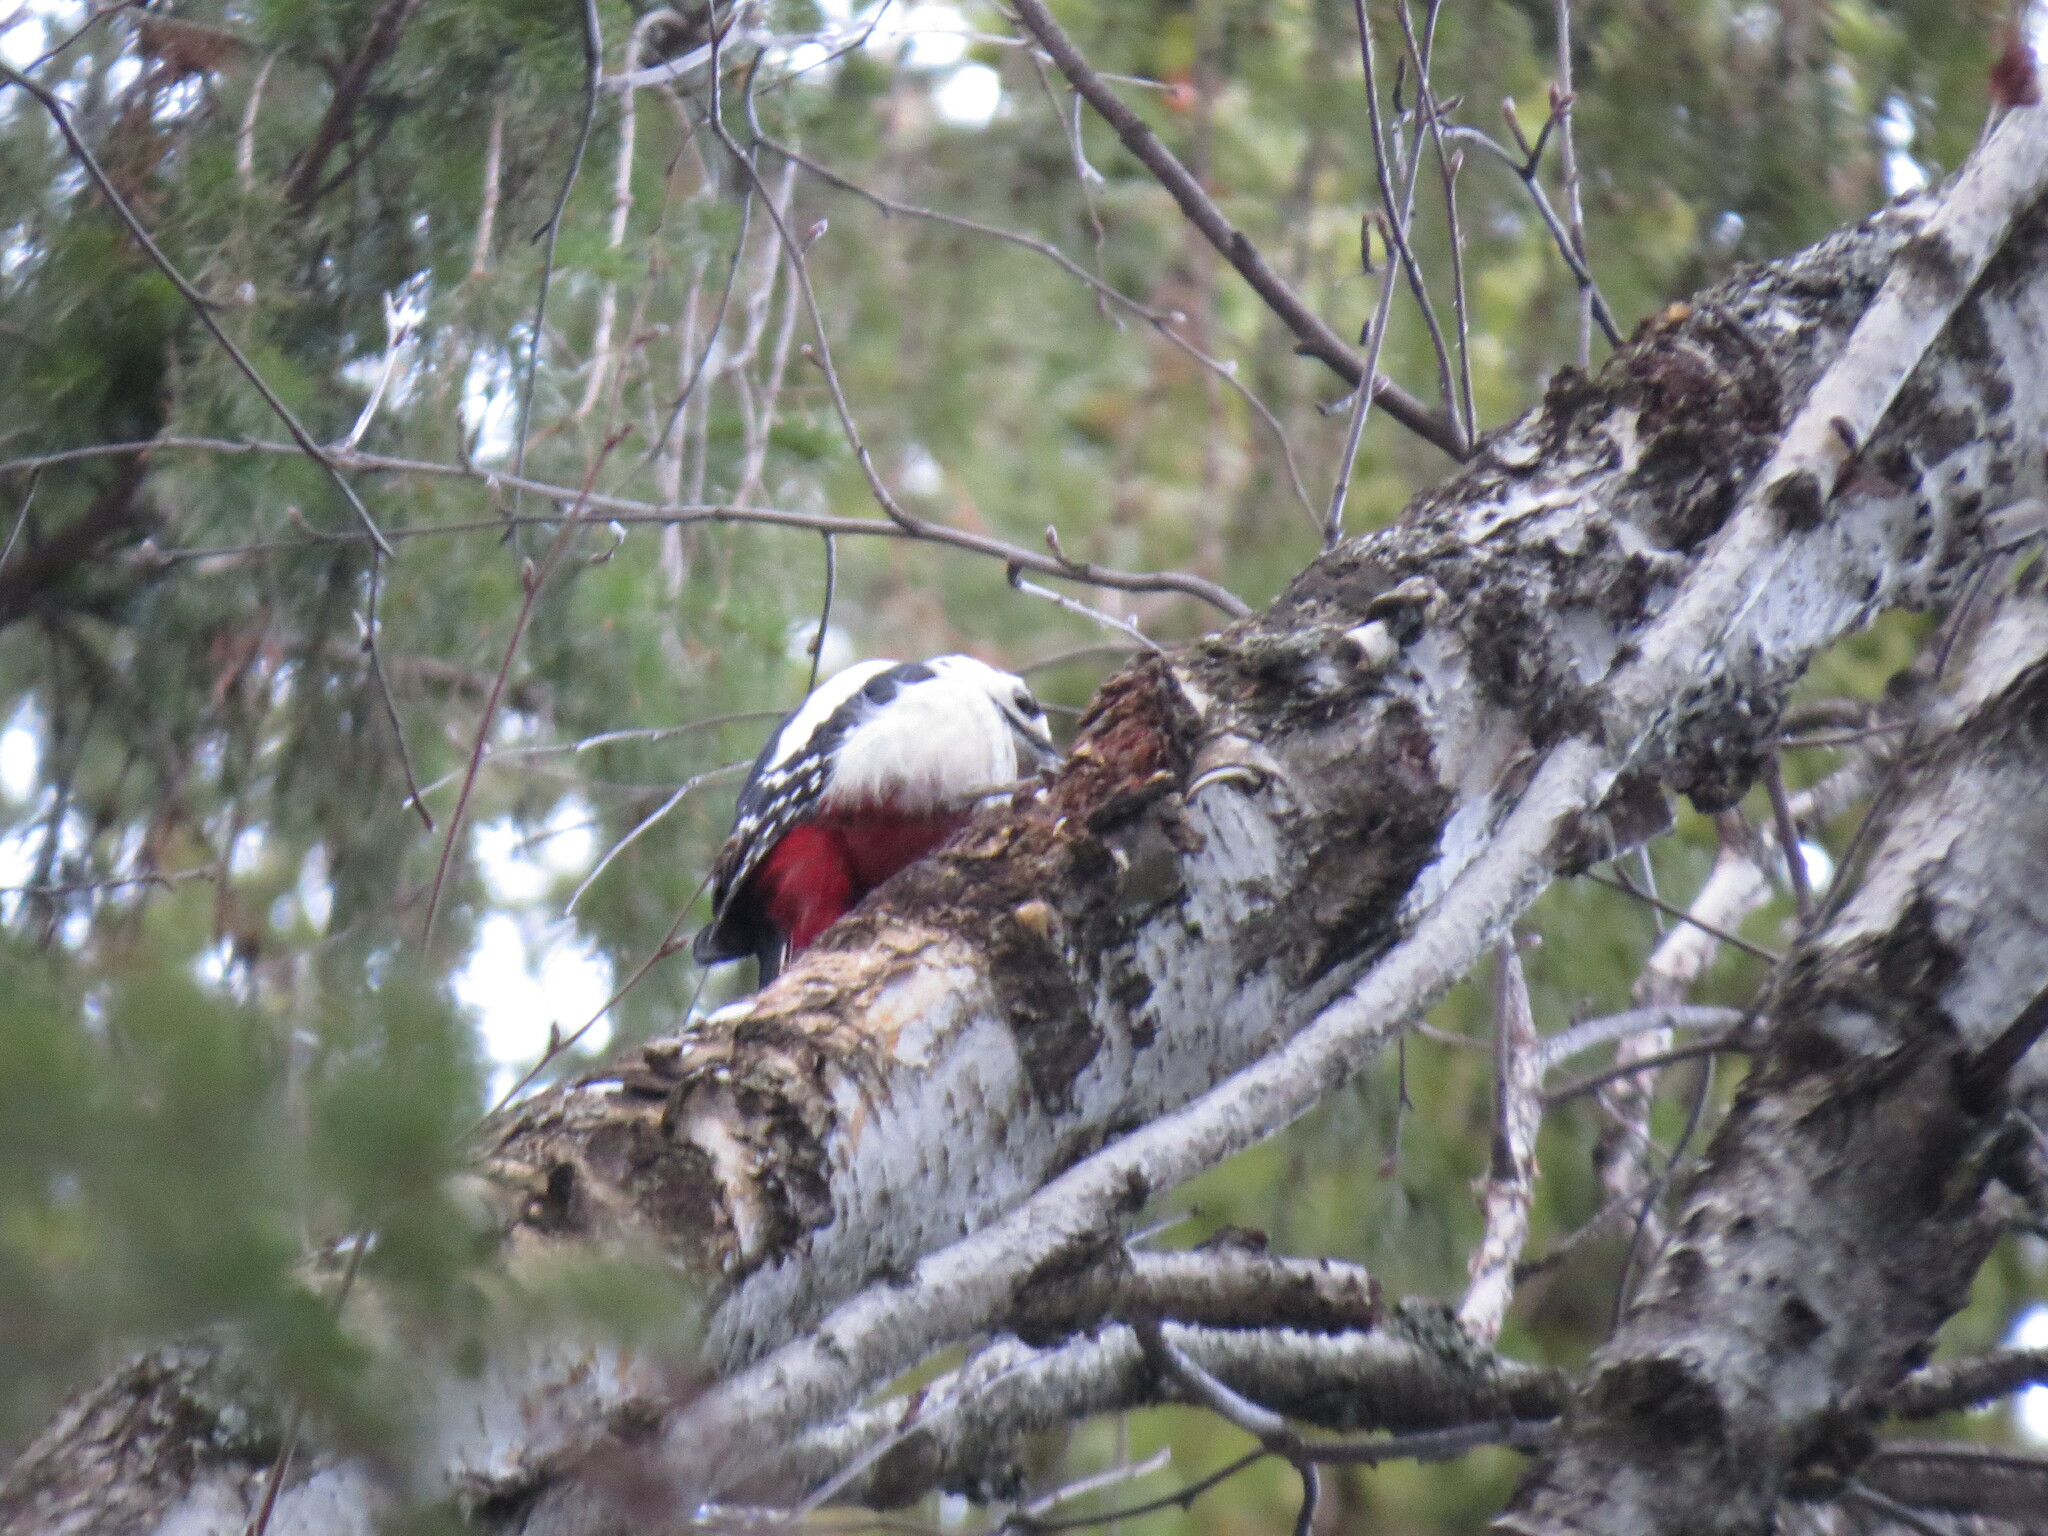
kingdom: Animalia
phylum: Chordata
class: Aves
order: Piciformes
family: Picidae
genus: Dendrocopos
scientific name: Dendrocopos major
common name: Great spotted woodpecker
